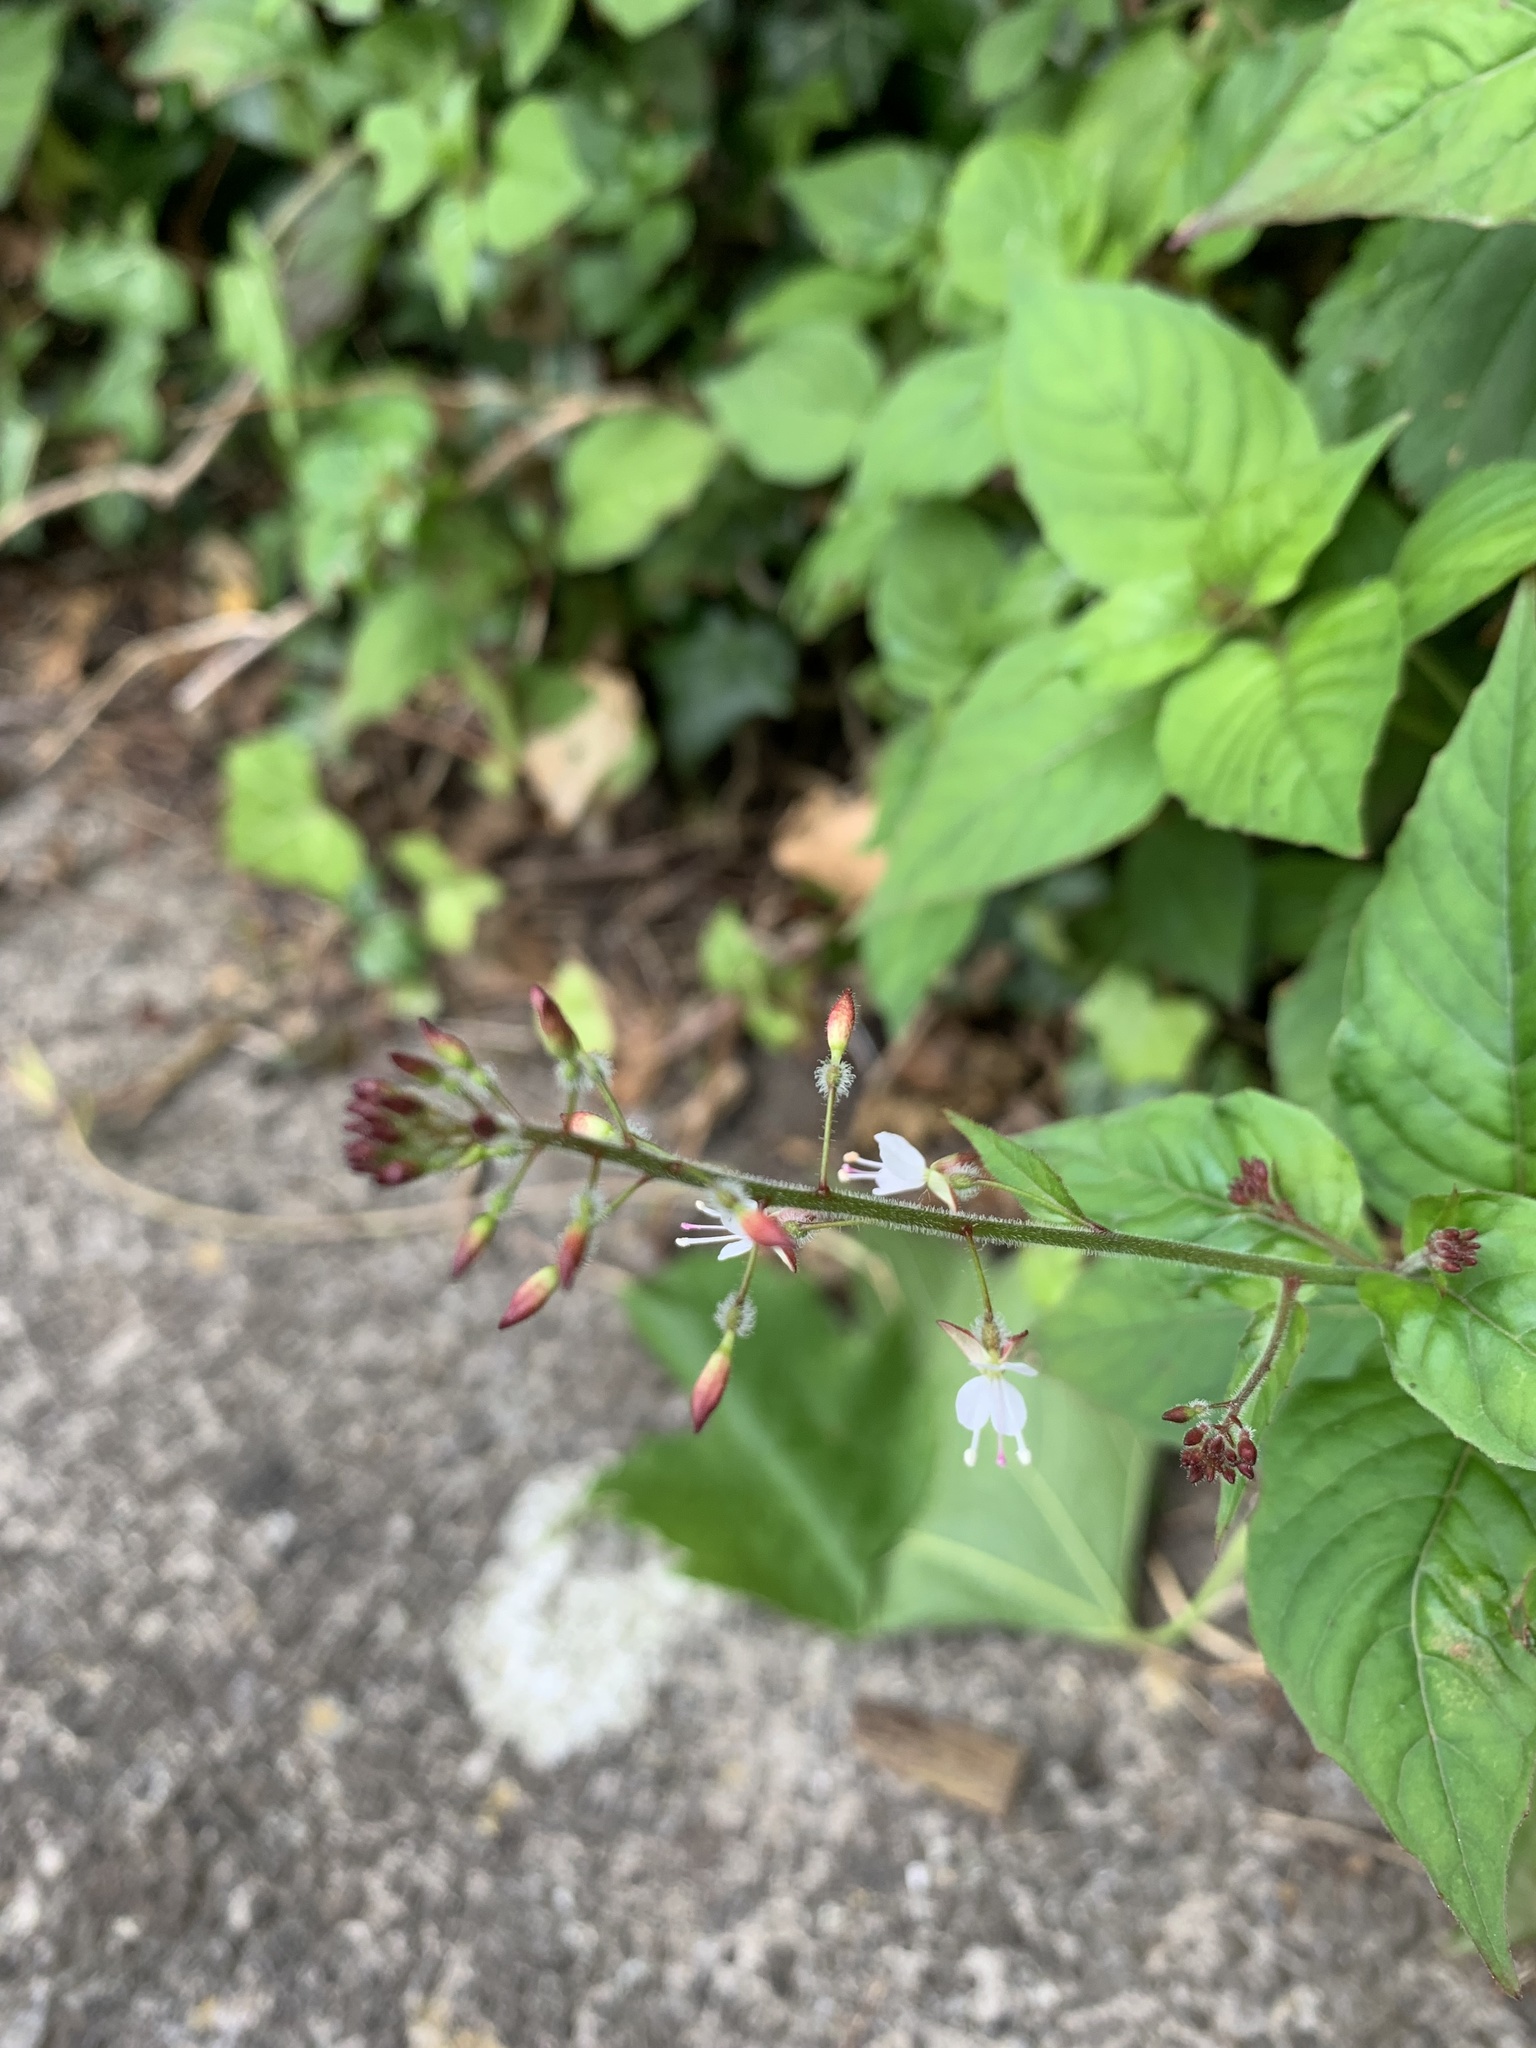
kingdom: Plantae
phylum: Tracheophyta
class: Magnoliopsida
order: Myrtales
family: Onagraceae
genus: Circaea
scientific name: Circaea lutetiana
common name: Enchanter's-nightshade
